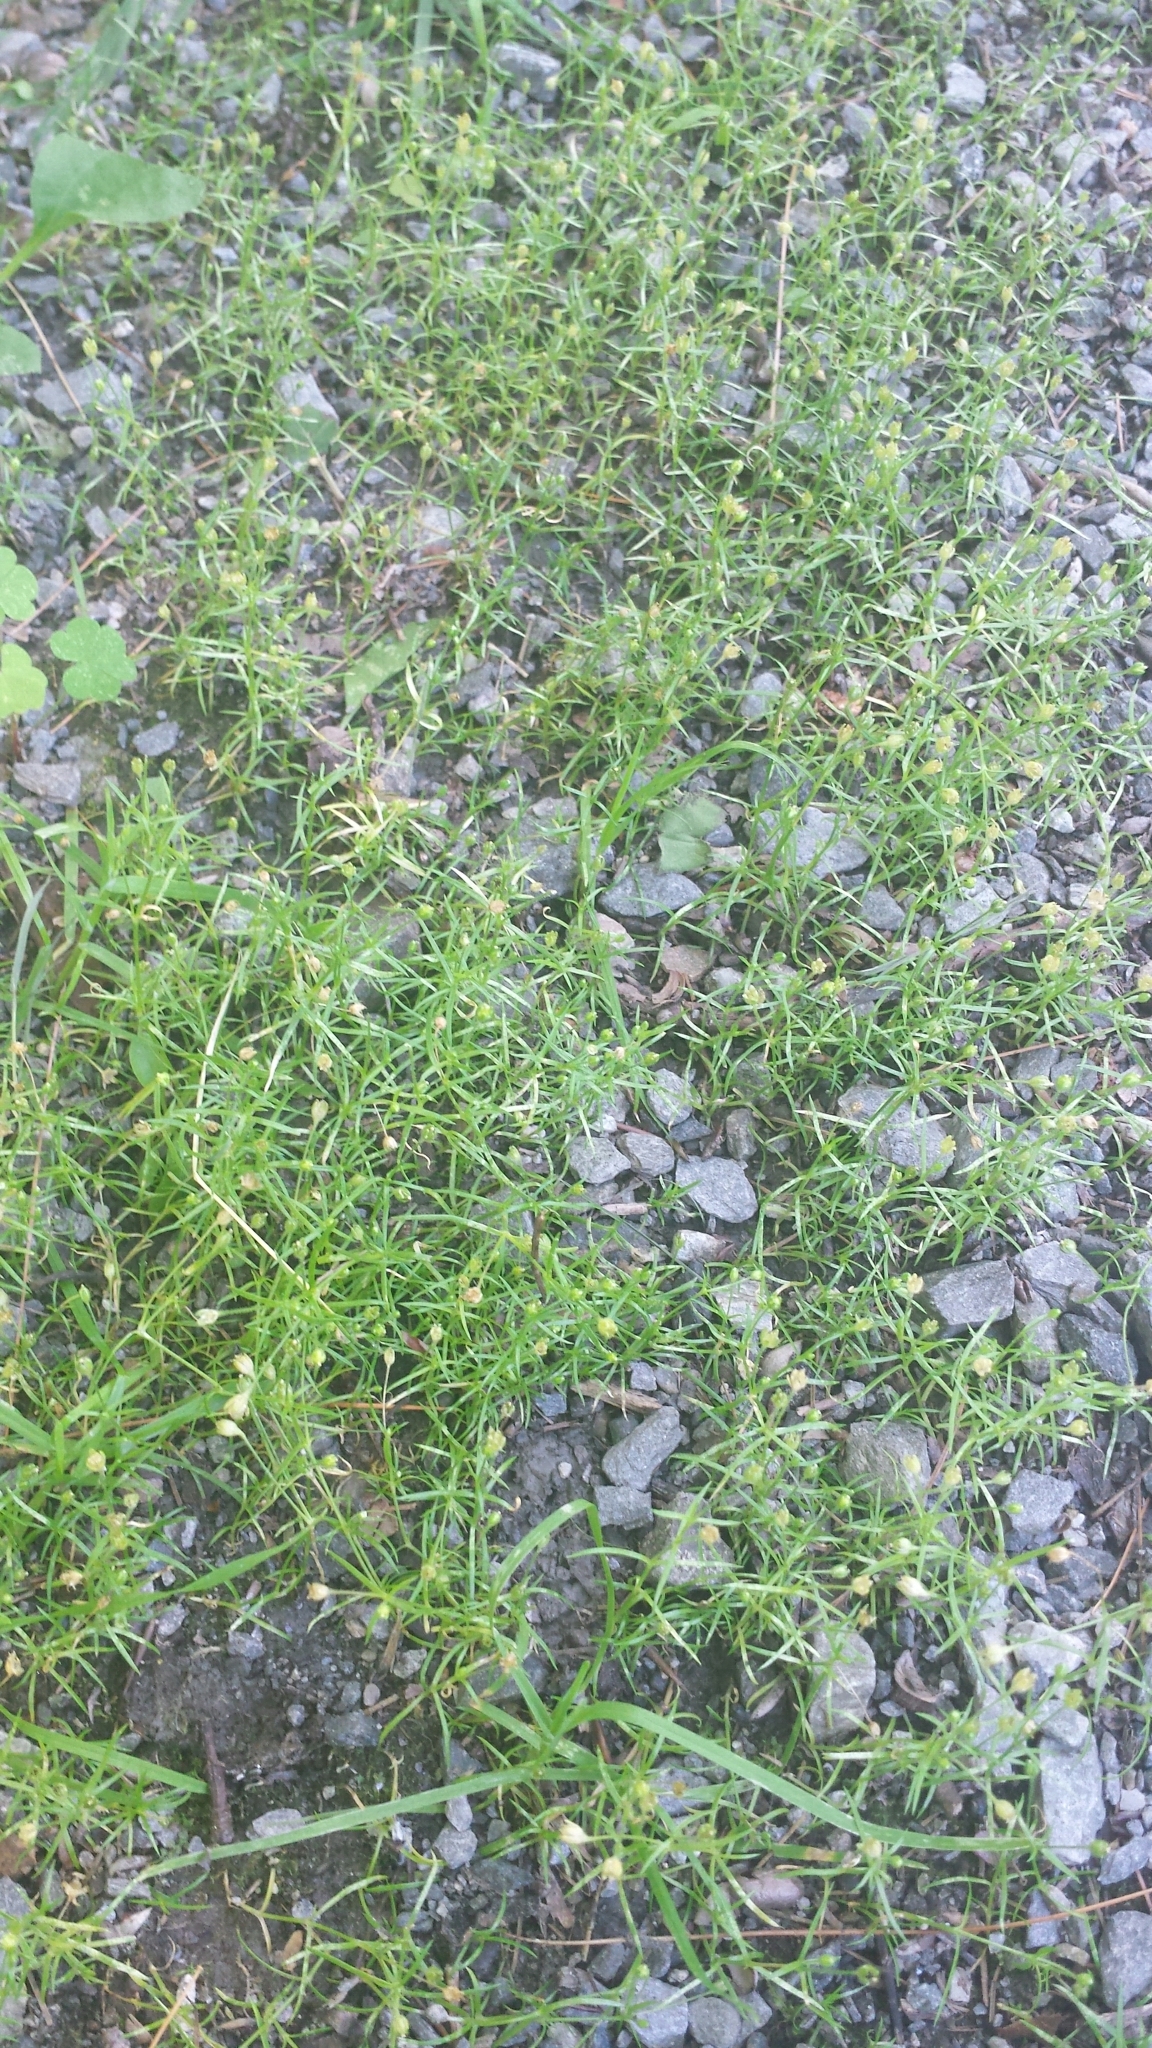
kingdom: Plantae
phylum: Tracheophyta
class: Magnoliopsida
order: Caryophyllales
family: Caryophyllaceae
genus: Sagina
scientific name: Sagina procumbens
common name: Procumbent pearlwort
